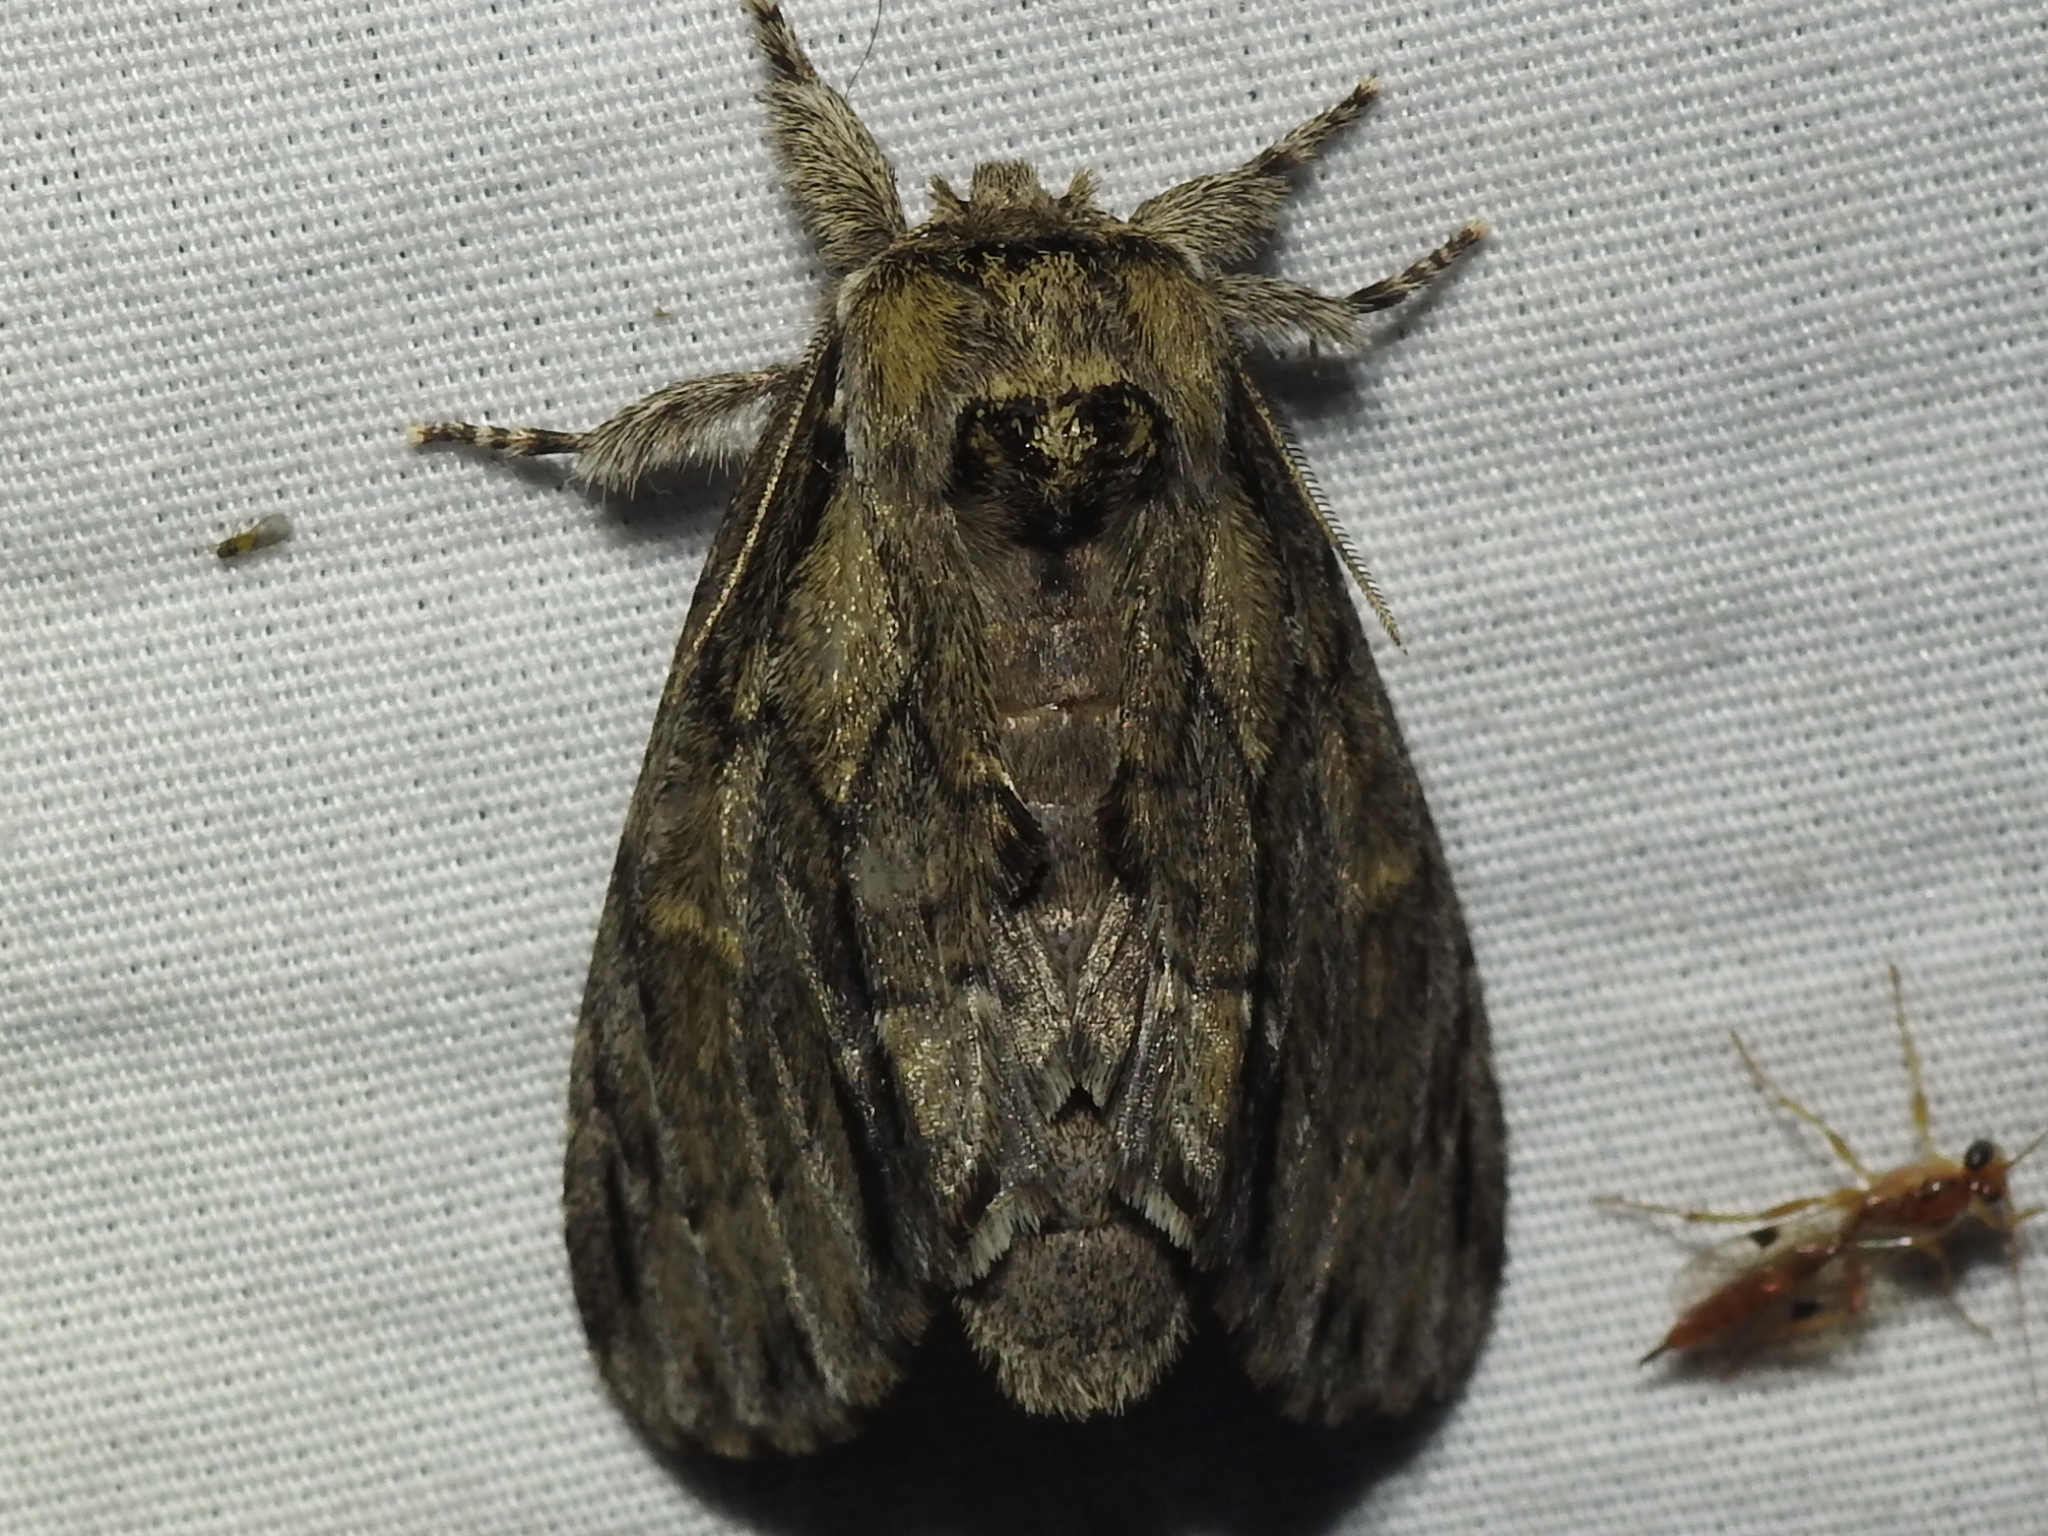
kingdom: Animalia
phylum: Arthropoda
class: Insecta
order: Lepidoptera
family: Notodontidae
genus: Paraeschra
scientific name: Paraeschra georgica
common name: Georgian prominent
